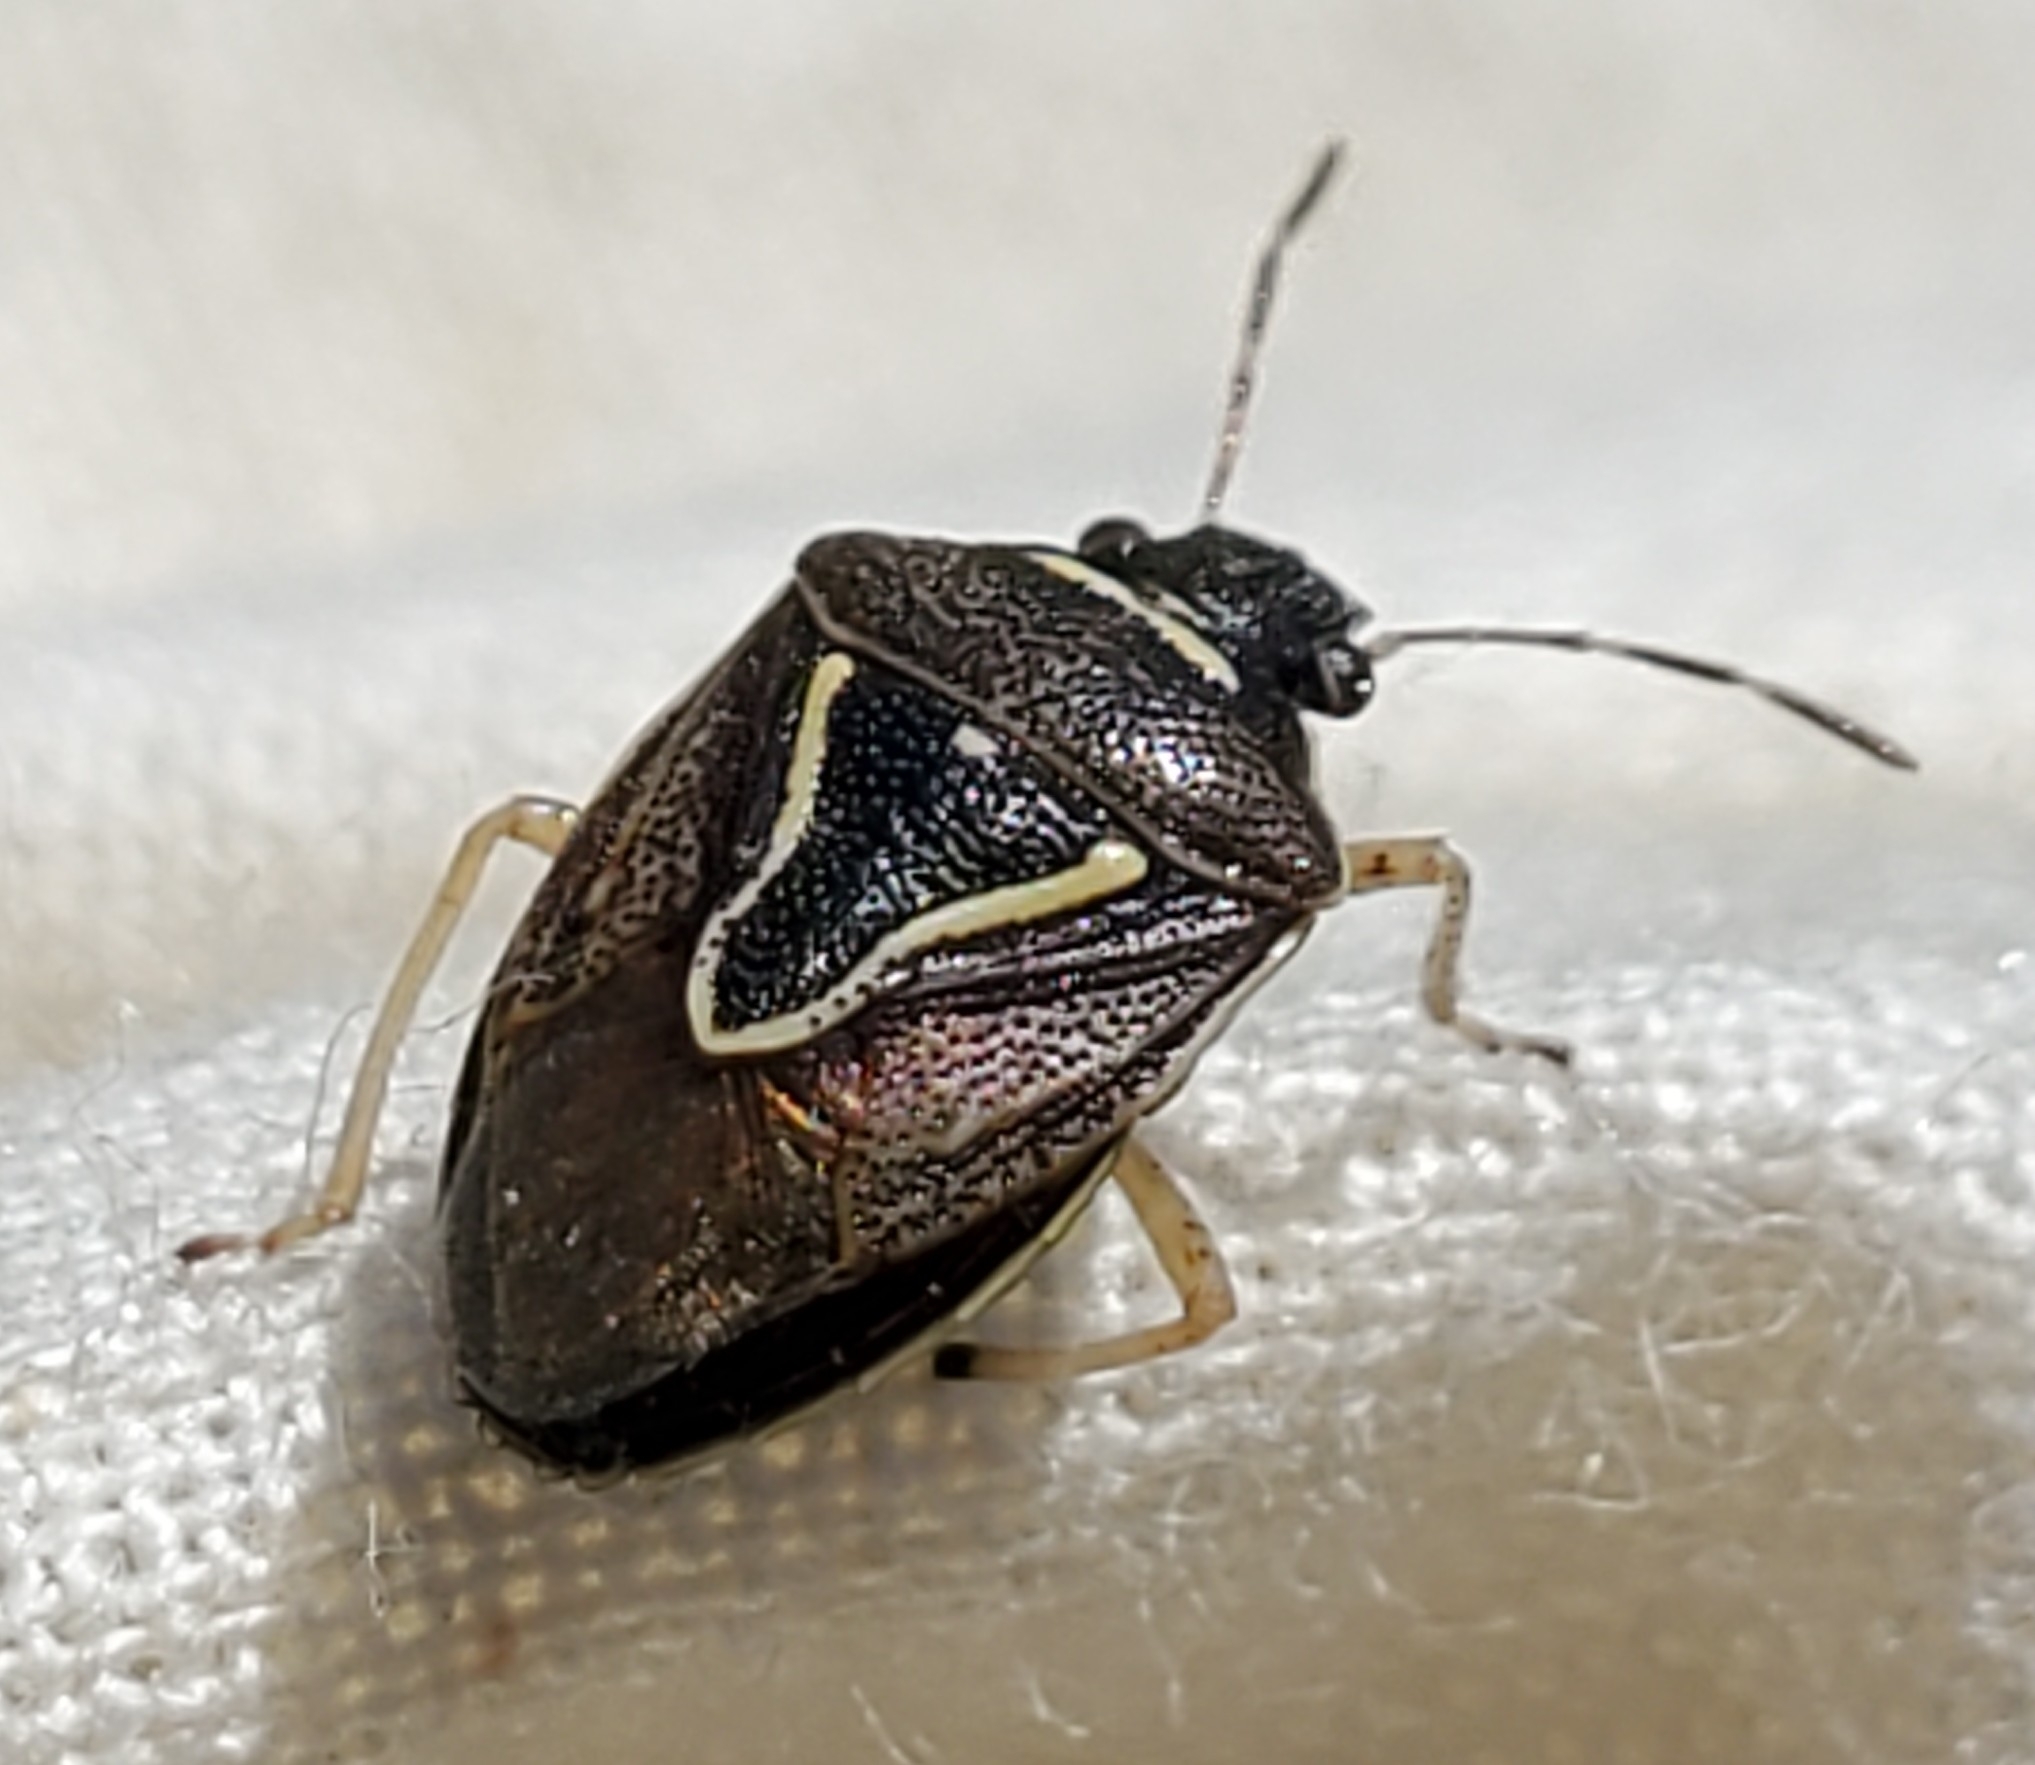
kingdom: Animalia
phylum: Arthropoda
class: Insecta
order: Hemiptera
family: Pentatomidae
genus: Mormidea
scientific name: Mormidea lugens
